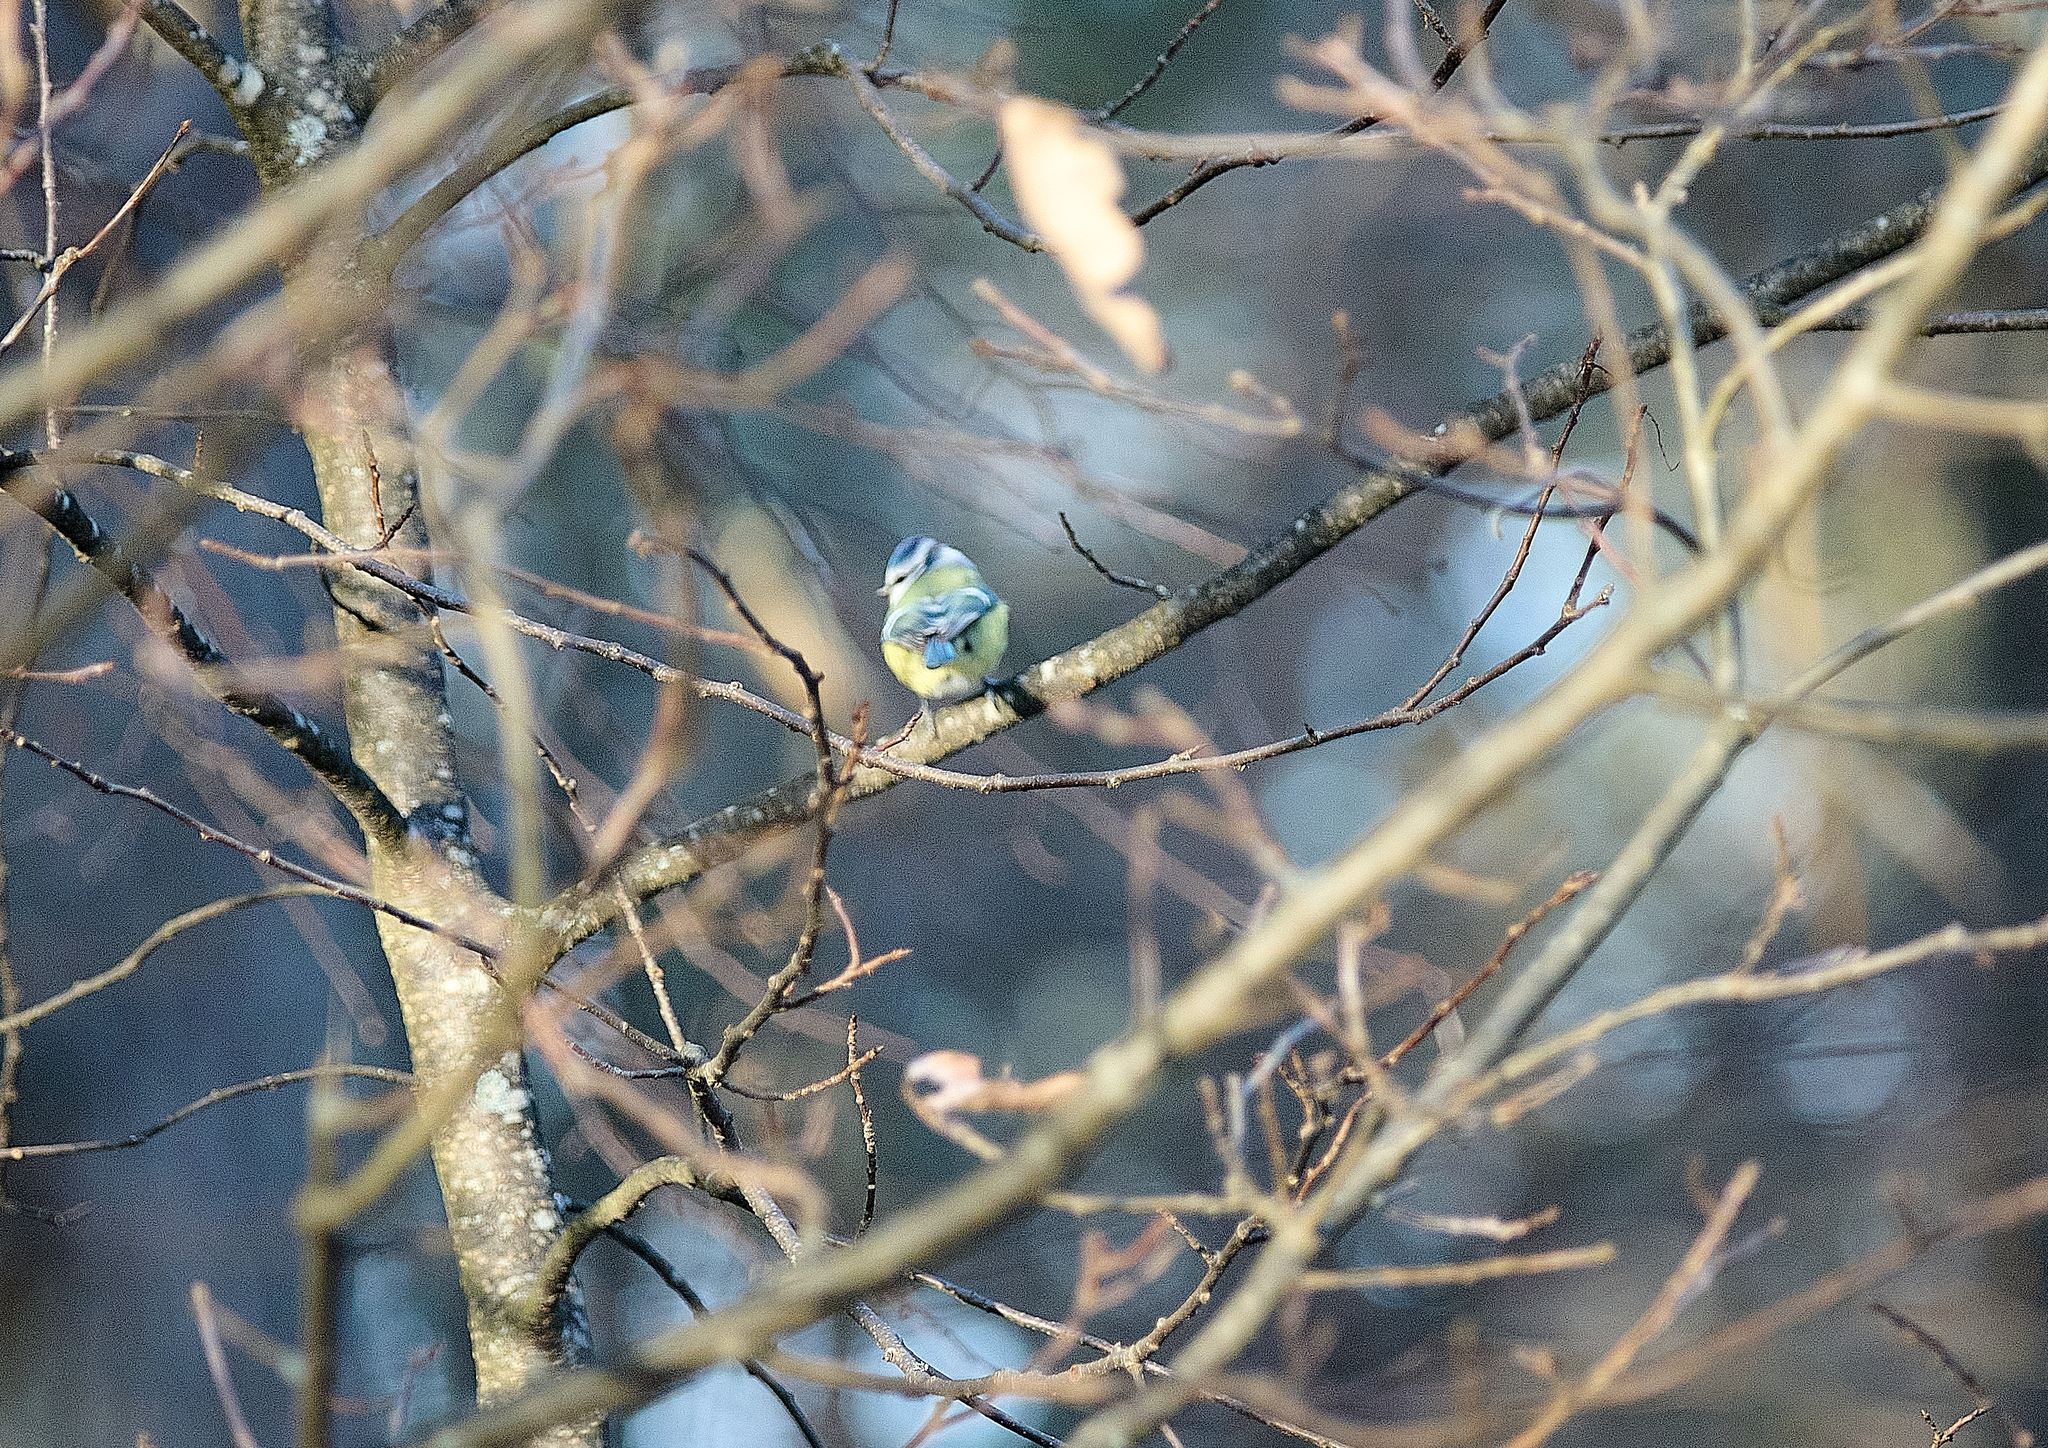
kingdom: Animalia
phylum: Chordata
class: Aves
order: Passeriformes
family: Paridae
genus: Cyanistes
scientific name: Cyanistes caeruleus
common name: Eurasian blue tit
